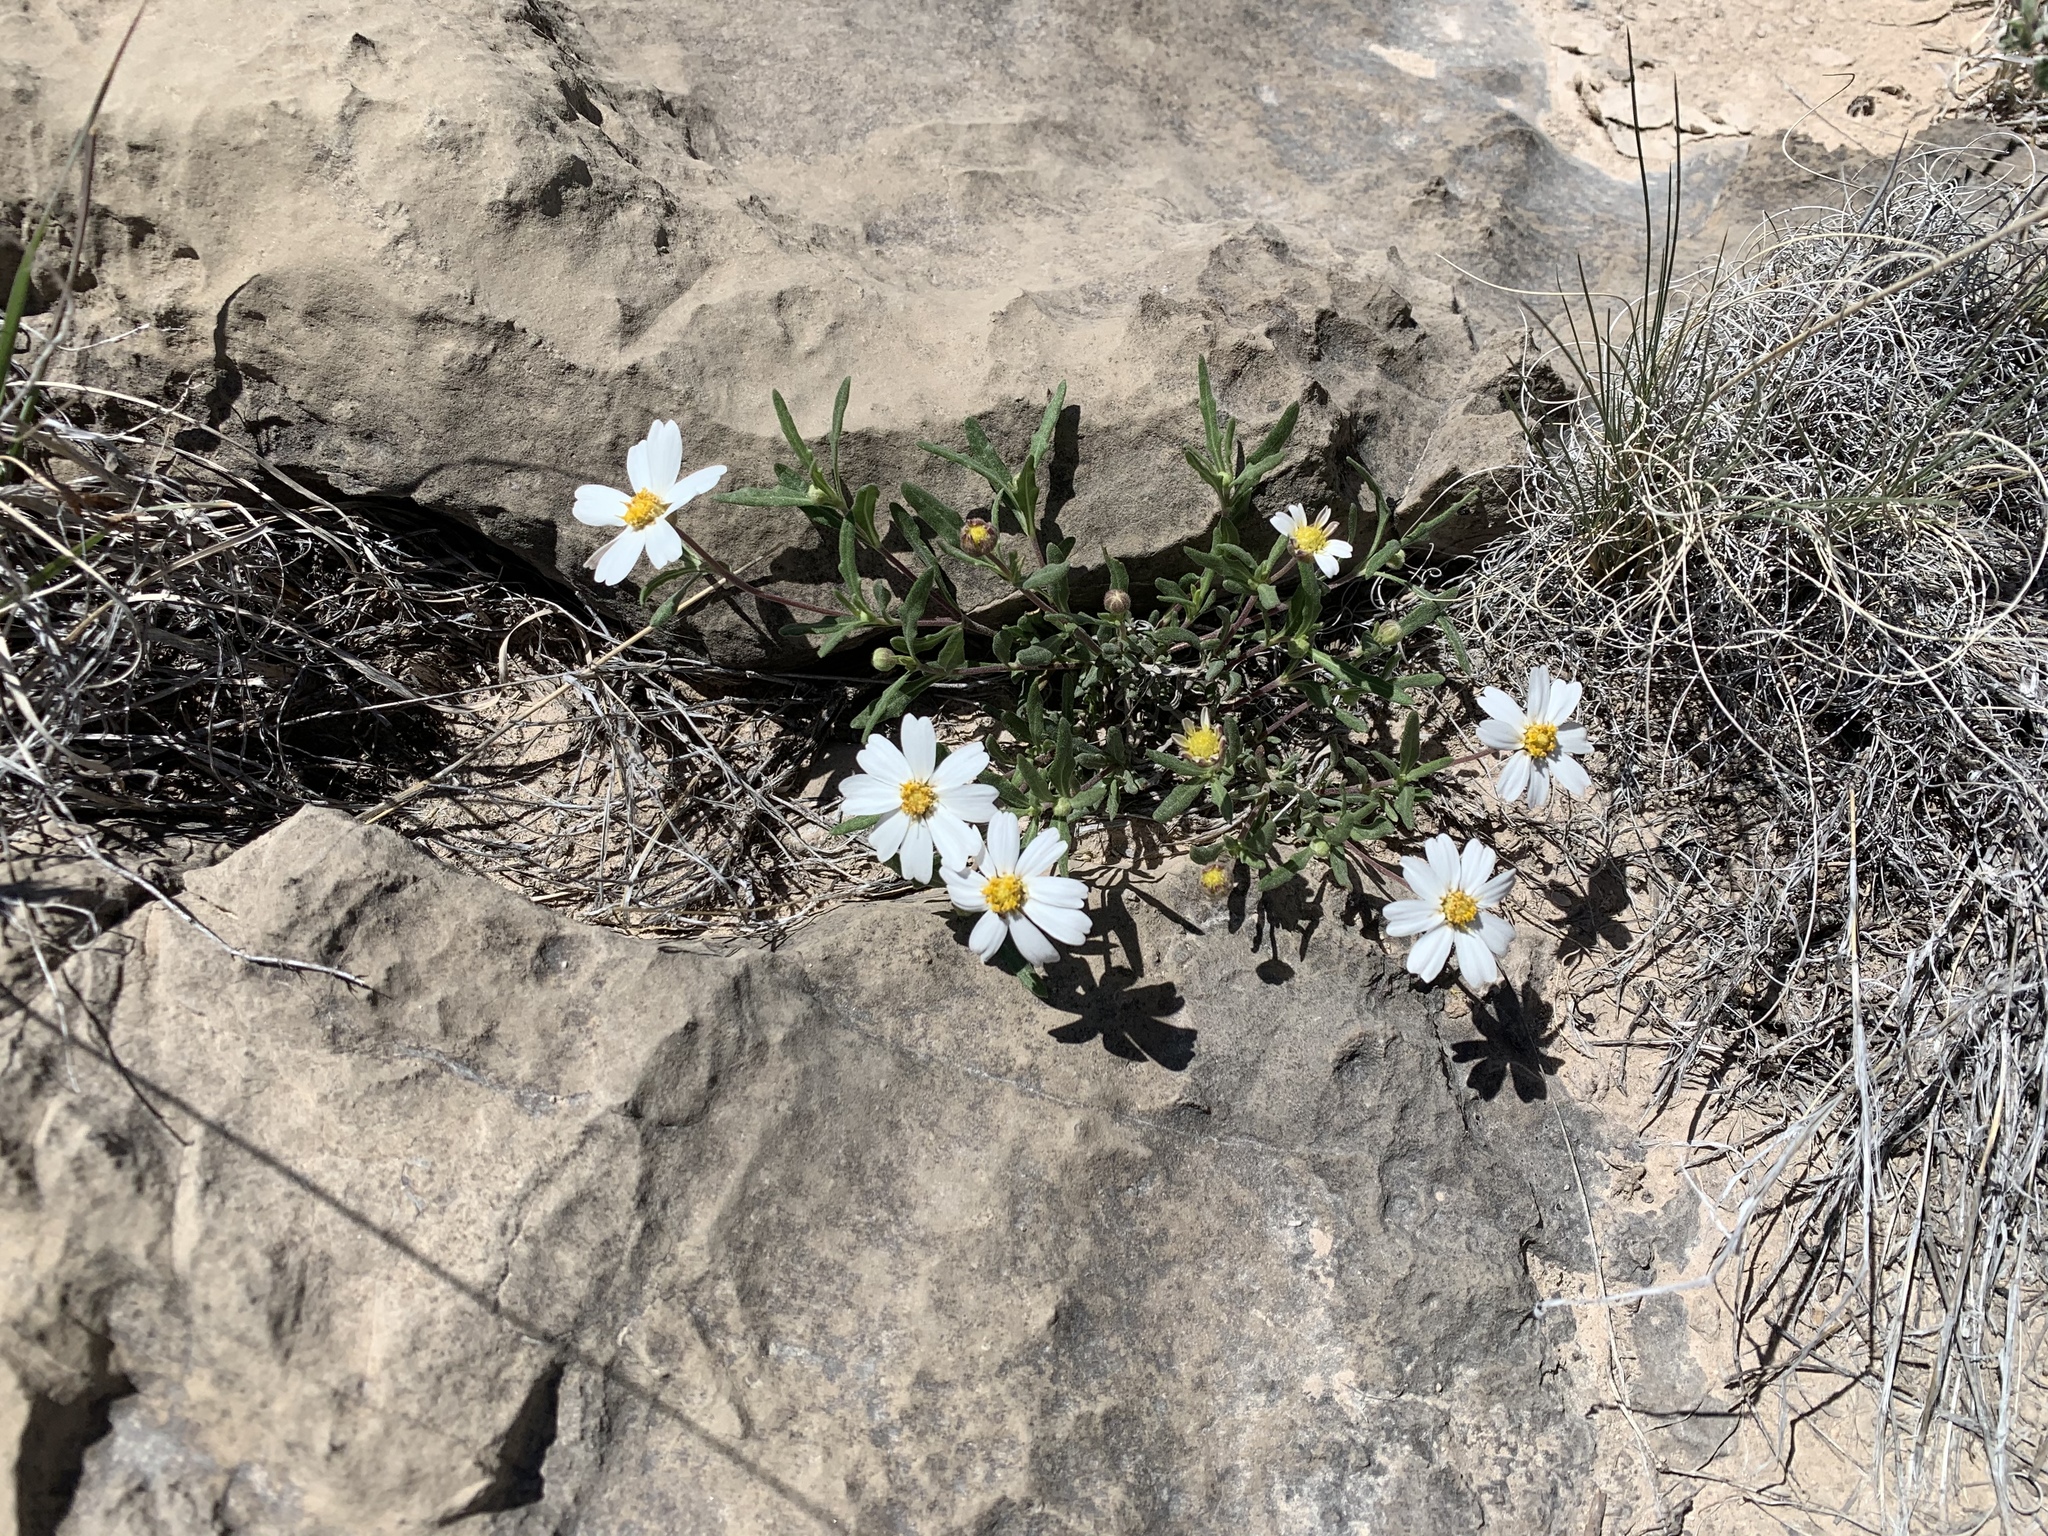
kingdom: Plantae
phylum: Tracheophyta
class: Magnoliopsida
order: Asterales
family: Asteraceae
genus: Melampodium
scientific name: Melampodium leucanthum
